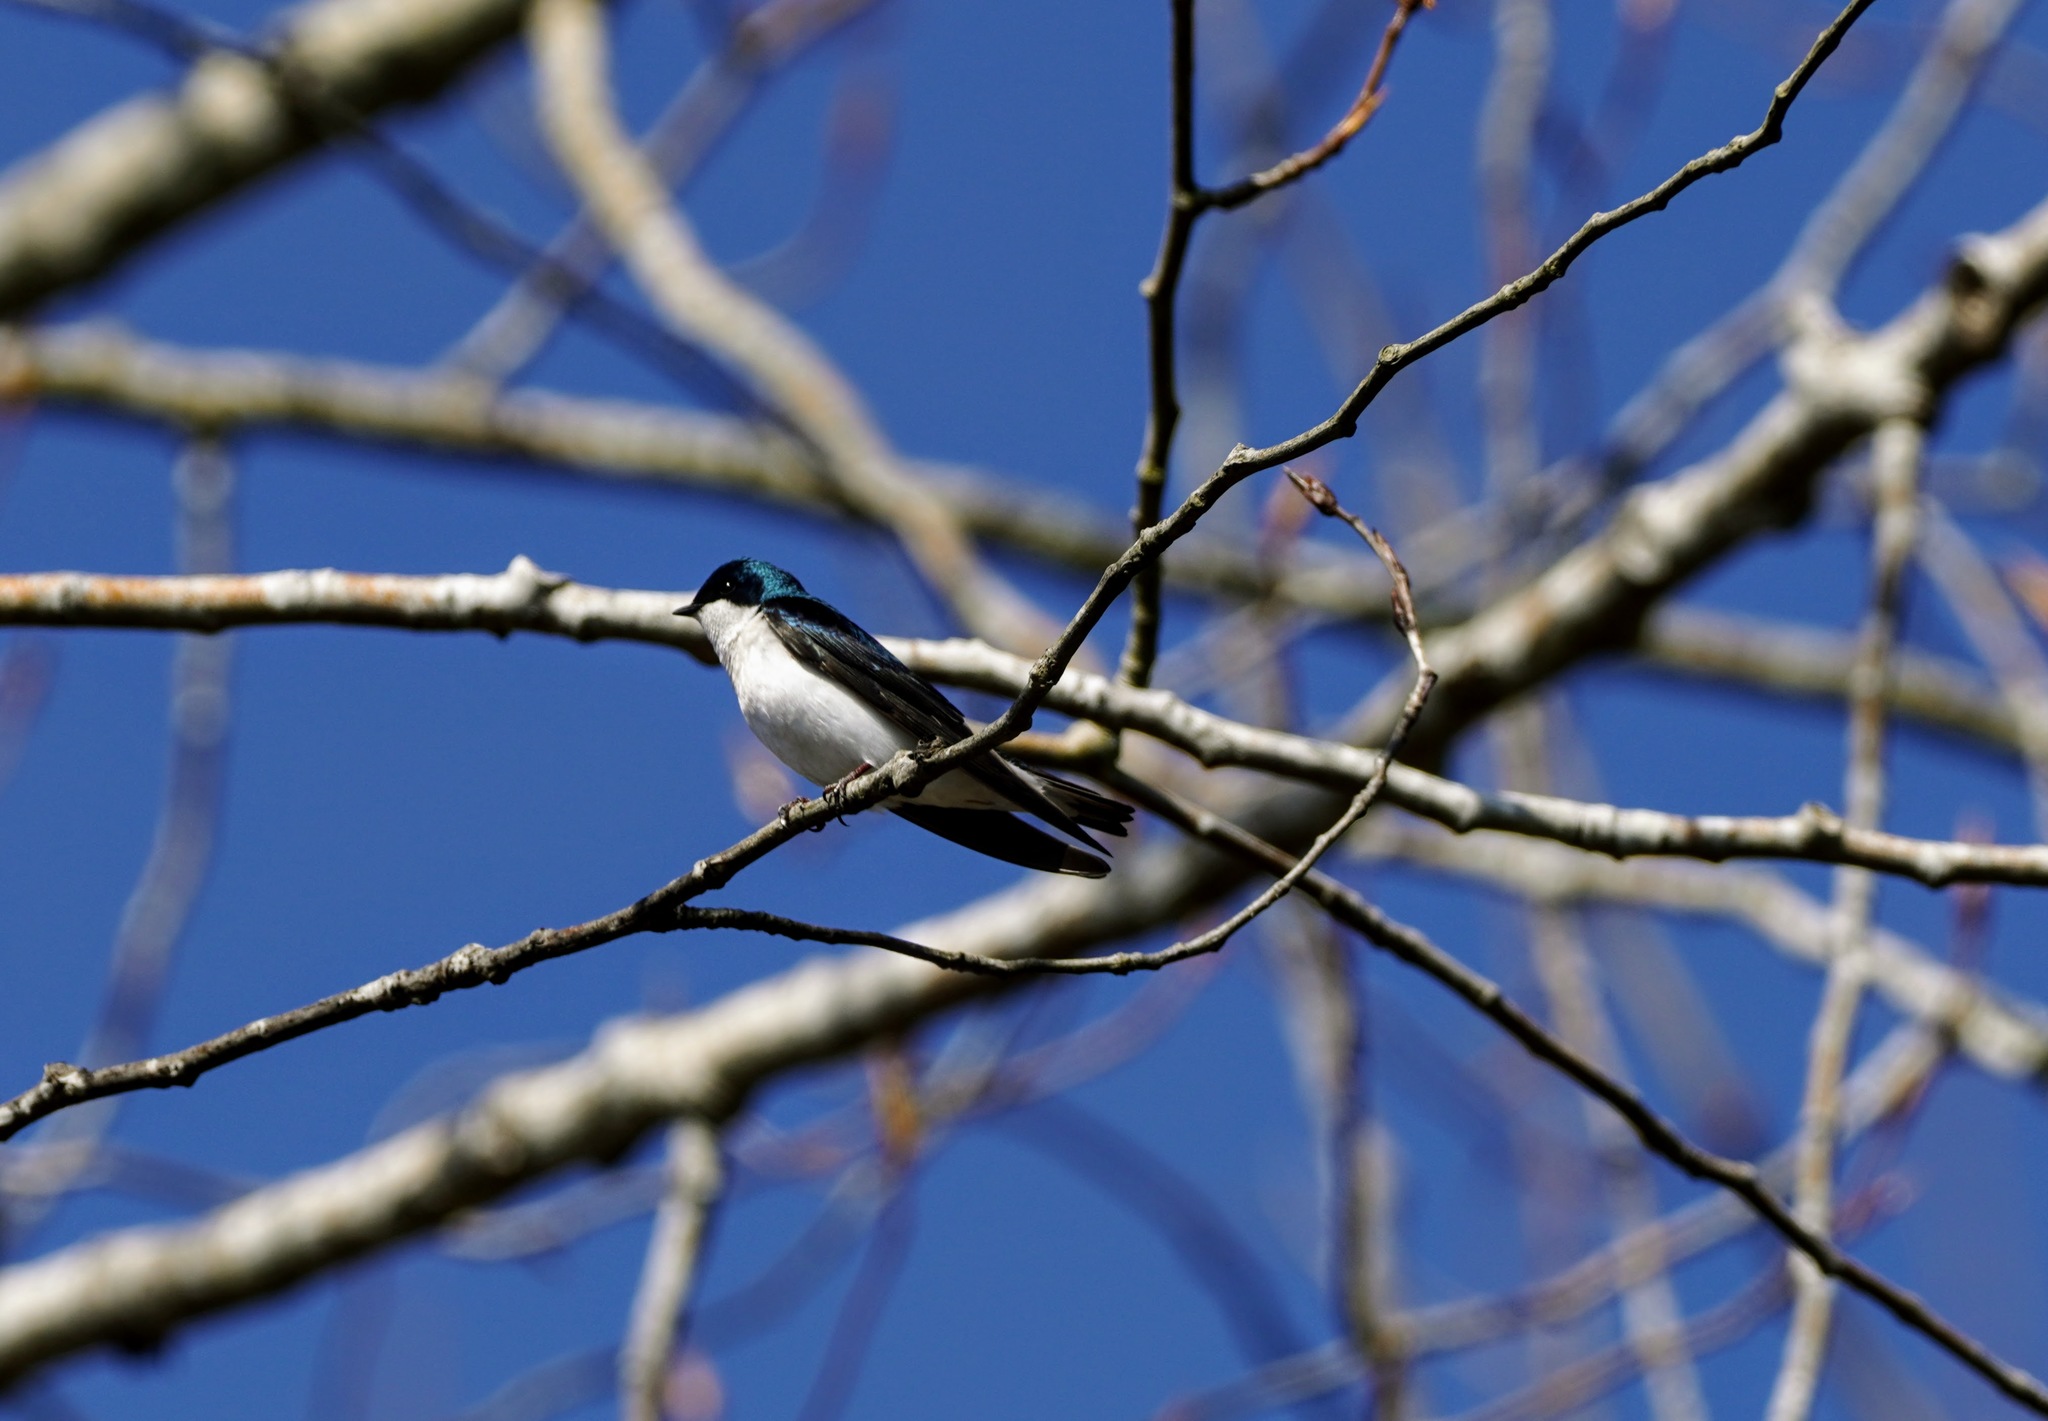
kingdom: Animalia
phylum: Chordata
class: Aves
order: Passeriformes
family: Hirundinidae
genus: Tachycineta
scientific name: Tachycineta bicolor
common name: Tree swallow
